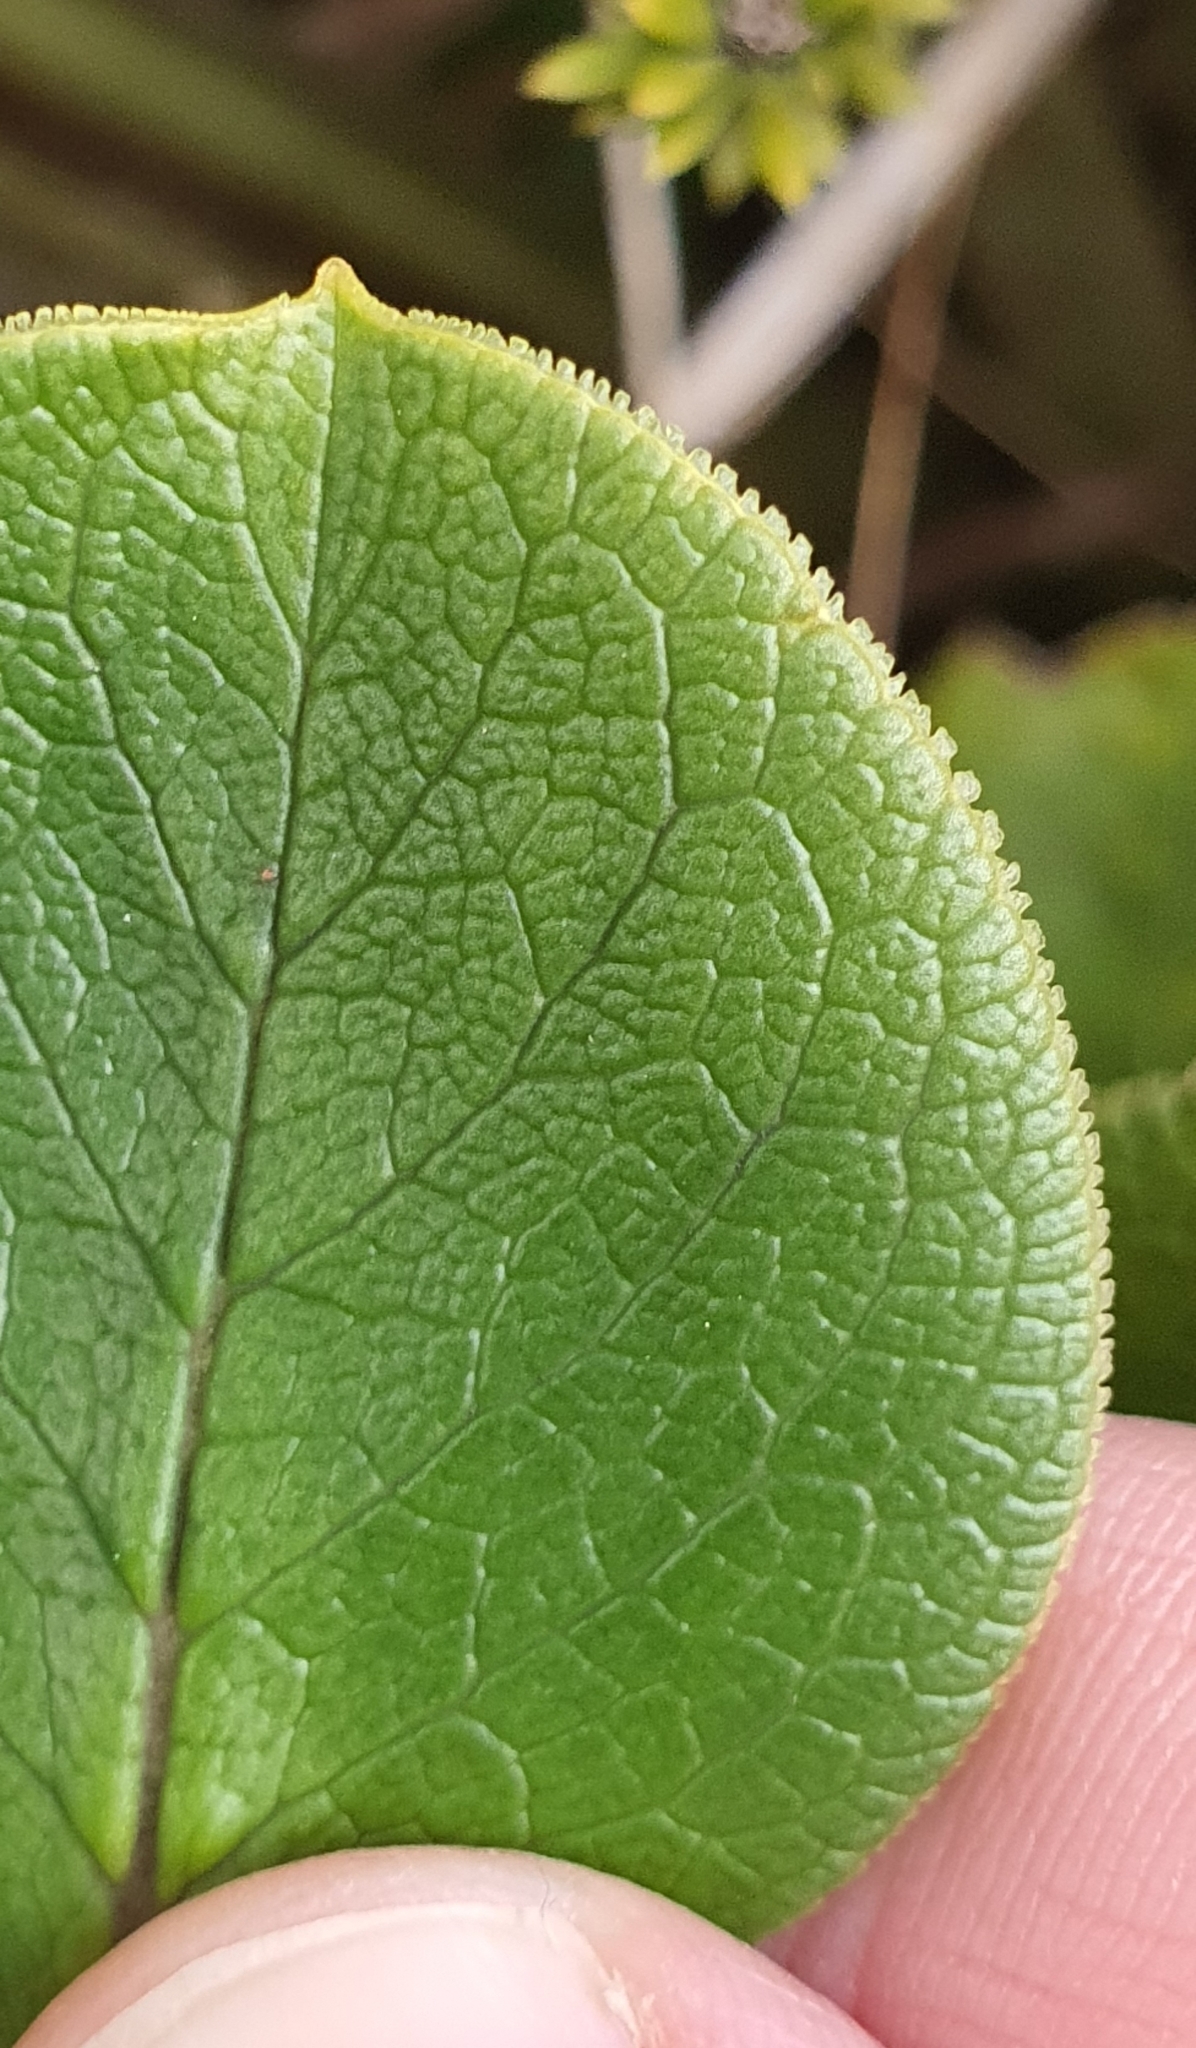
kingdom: Plantae
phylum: Tracheophyta
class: Magnoliopsida
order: Gentianales
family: Rubiaceae
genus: Coprosma
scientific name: Coprosma serrulata
